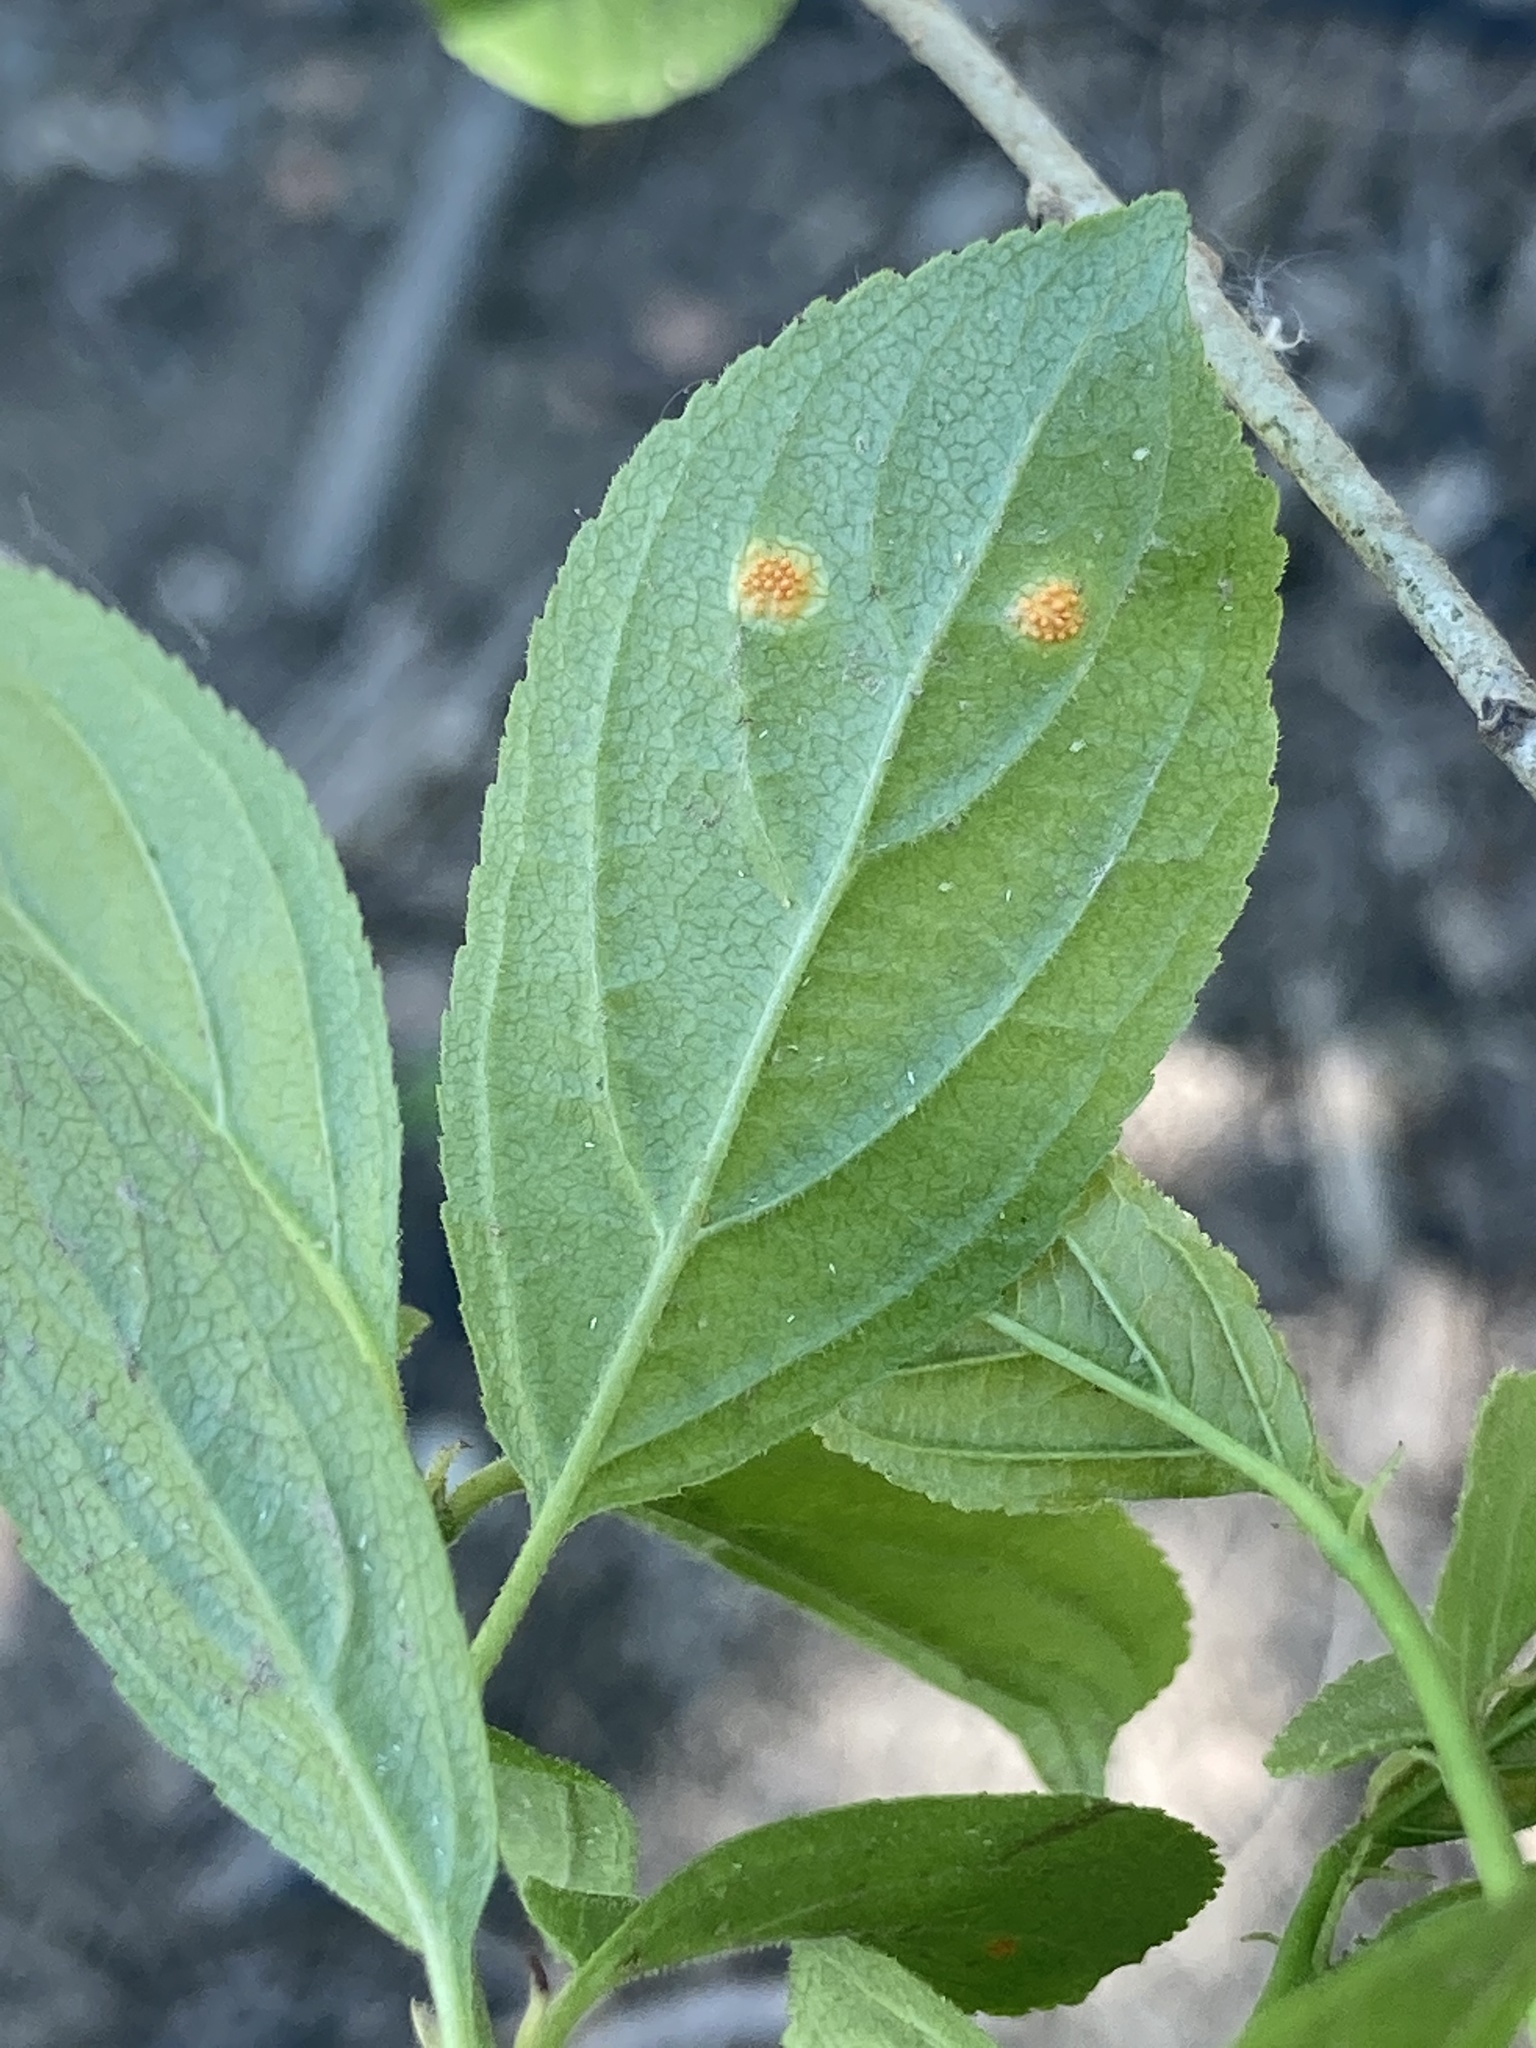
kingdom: Fungi
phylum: Basidiomycota
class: Pucciniomycetes
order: Pucciniales
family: Pucciniaceae
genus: Puccinia
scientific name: Puccinia coronata
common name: Crown rust
